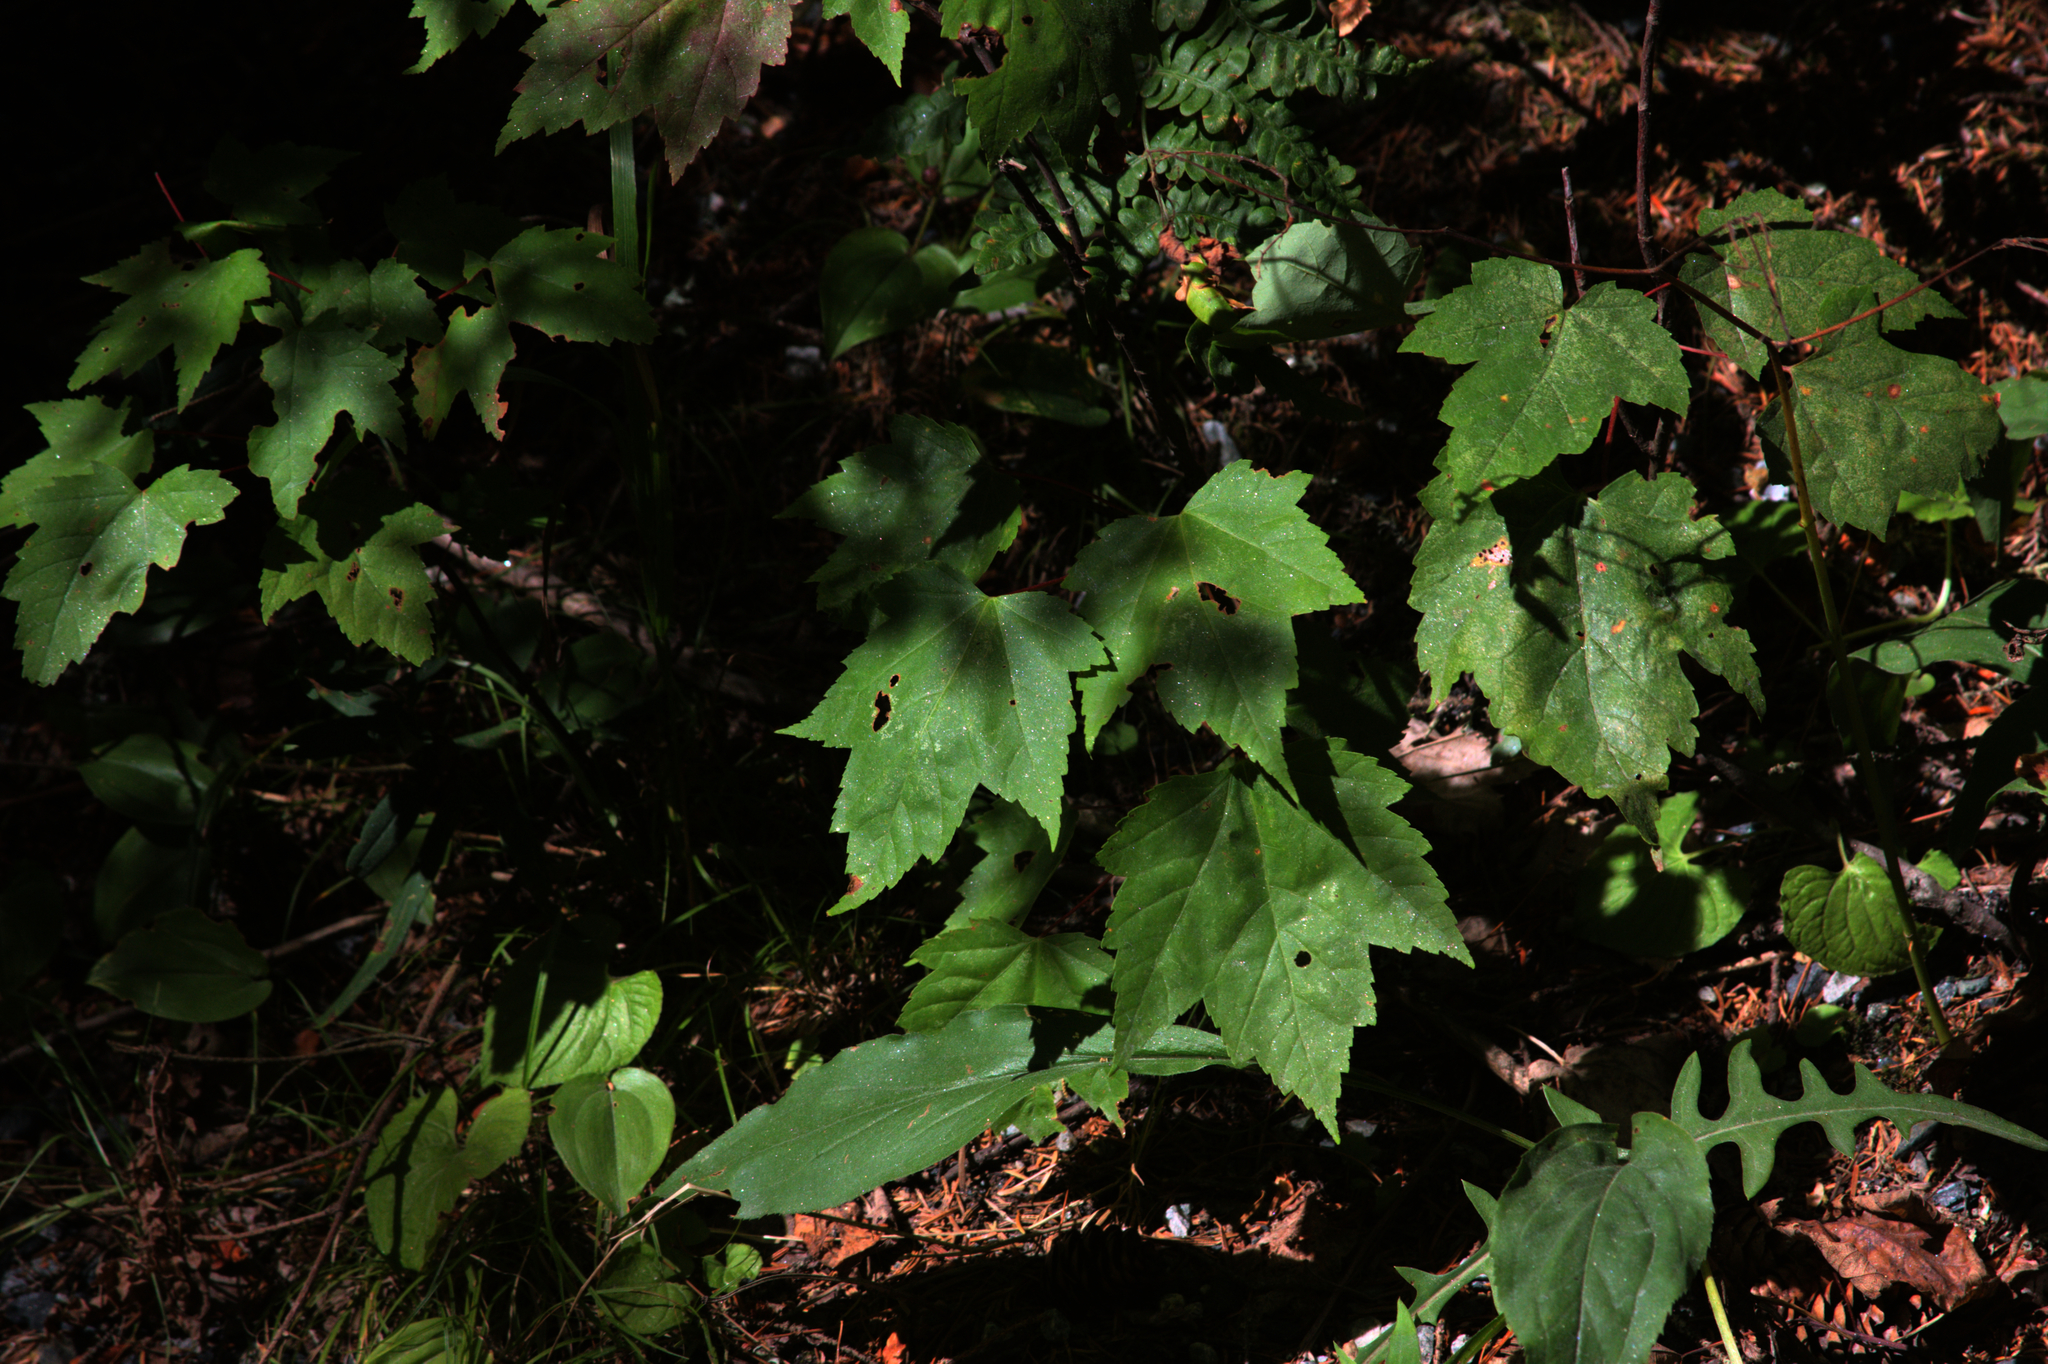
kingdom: Plantae
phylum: Tracheophyta
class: Magnoliopsida
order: Sapindales
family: Sapindaceae
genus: Acer
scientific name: Acer rubrum
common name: Red maple
